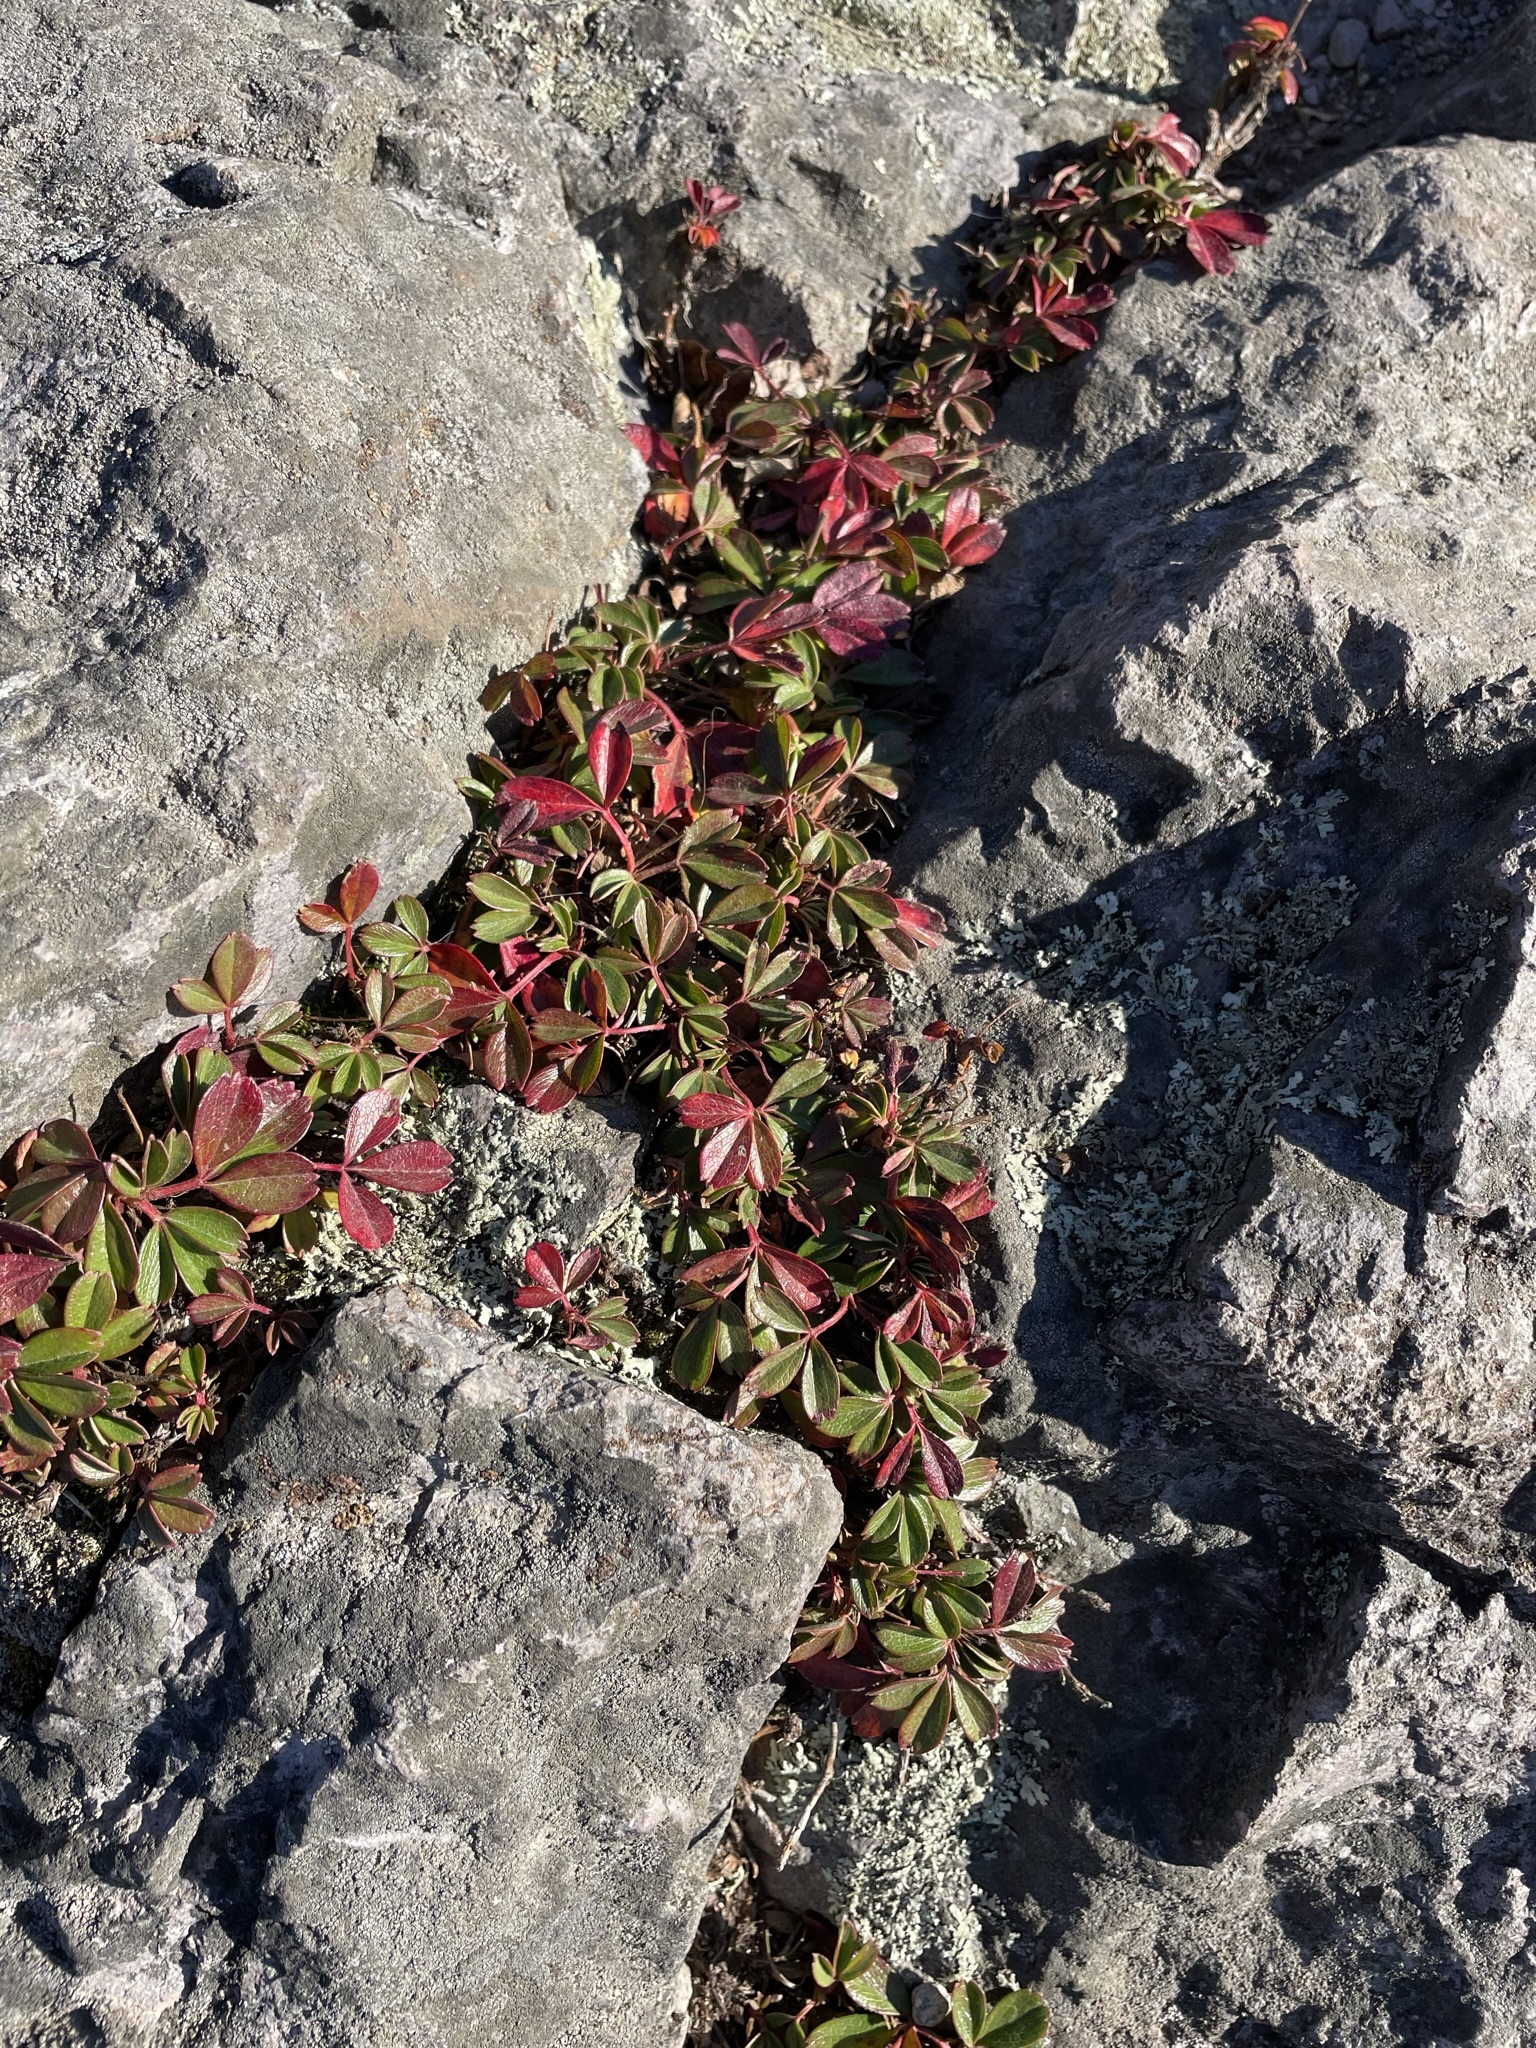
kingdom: Plantae
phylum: Tracheophyta
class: Magnoliopsida
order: Rosales
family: Rosaceae
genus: Sibbaldia
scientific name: Sibbaldia tridentata
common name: Three-toothed cinquefoil
